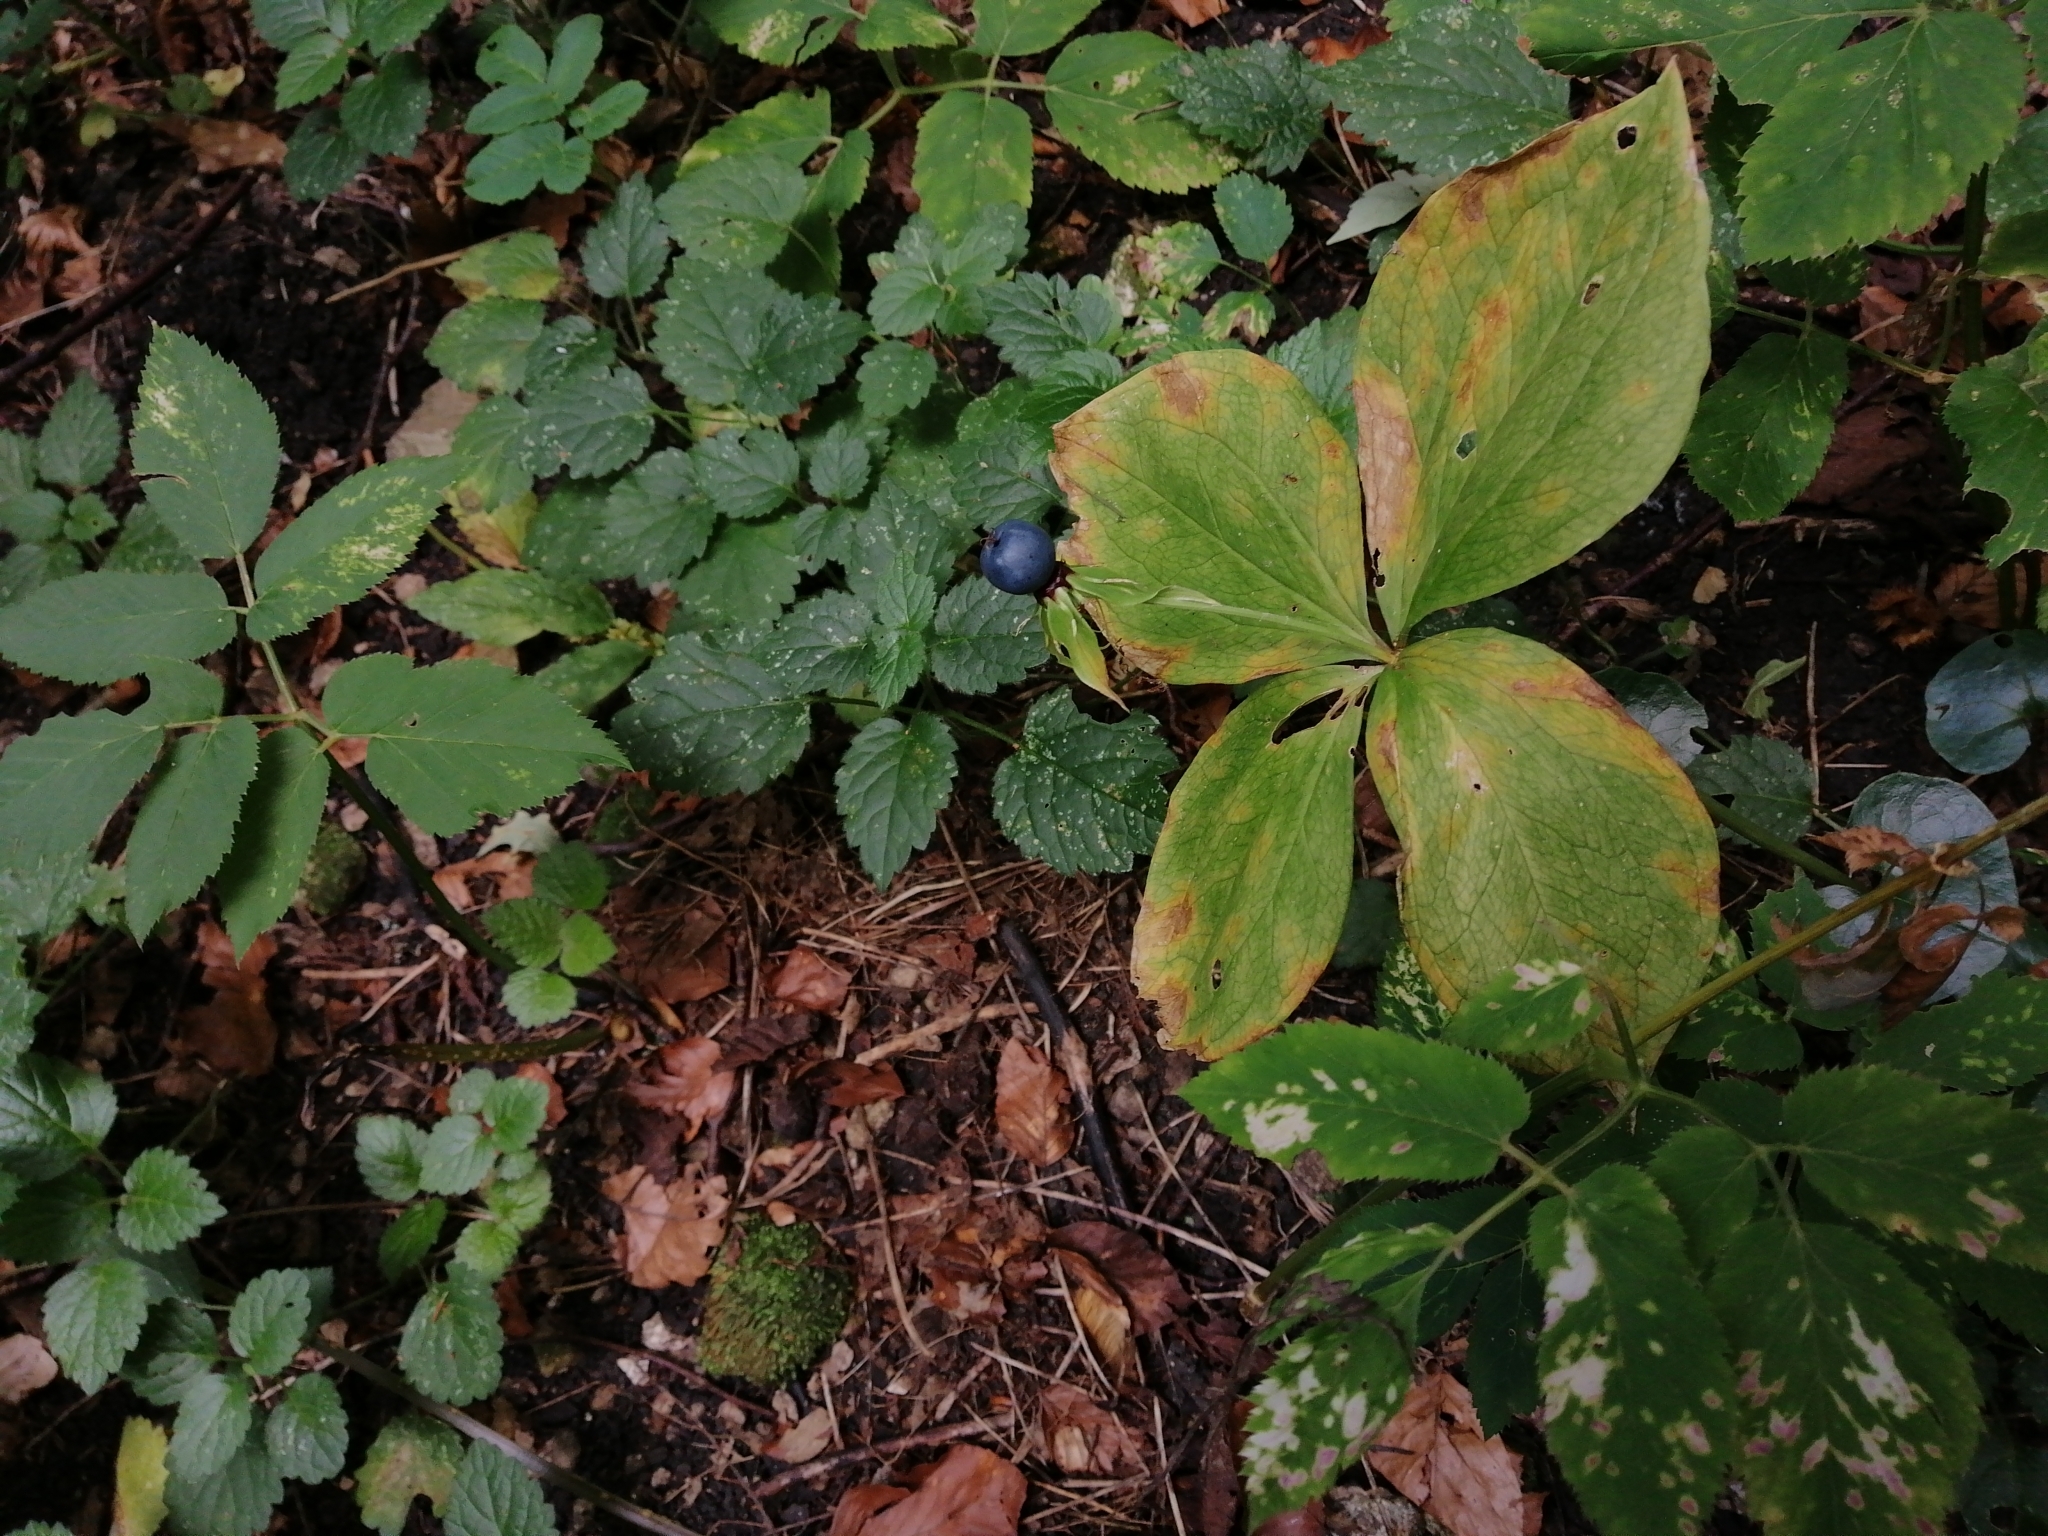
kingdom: Plantae
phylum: Tracheophyta
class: Liliopsida
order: Liliales
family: Melanthiaceae
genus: Paris
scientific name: Paris quadrifolia
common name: Herb-paris
